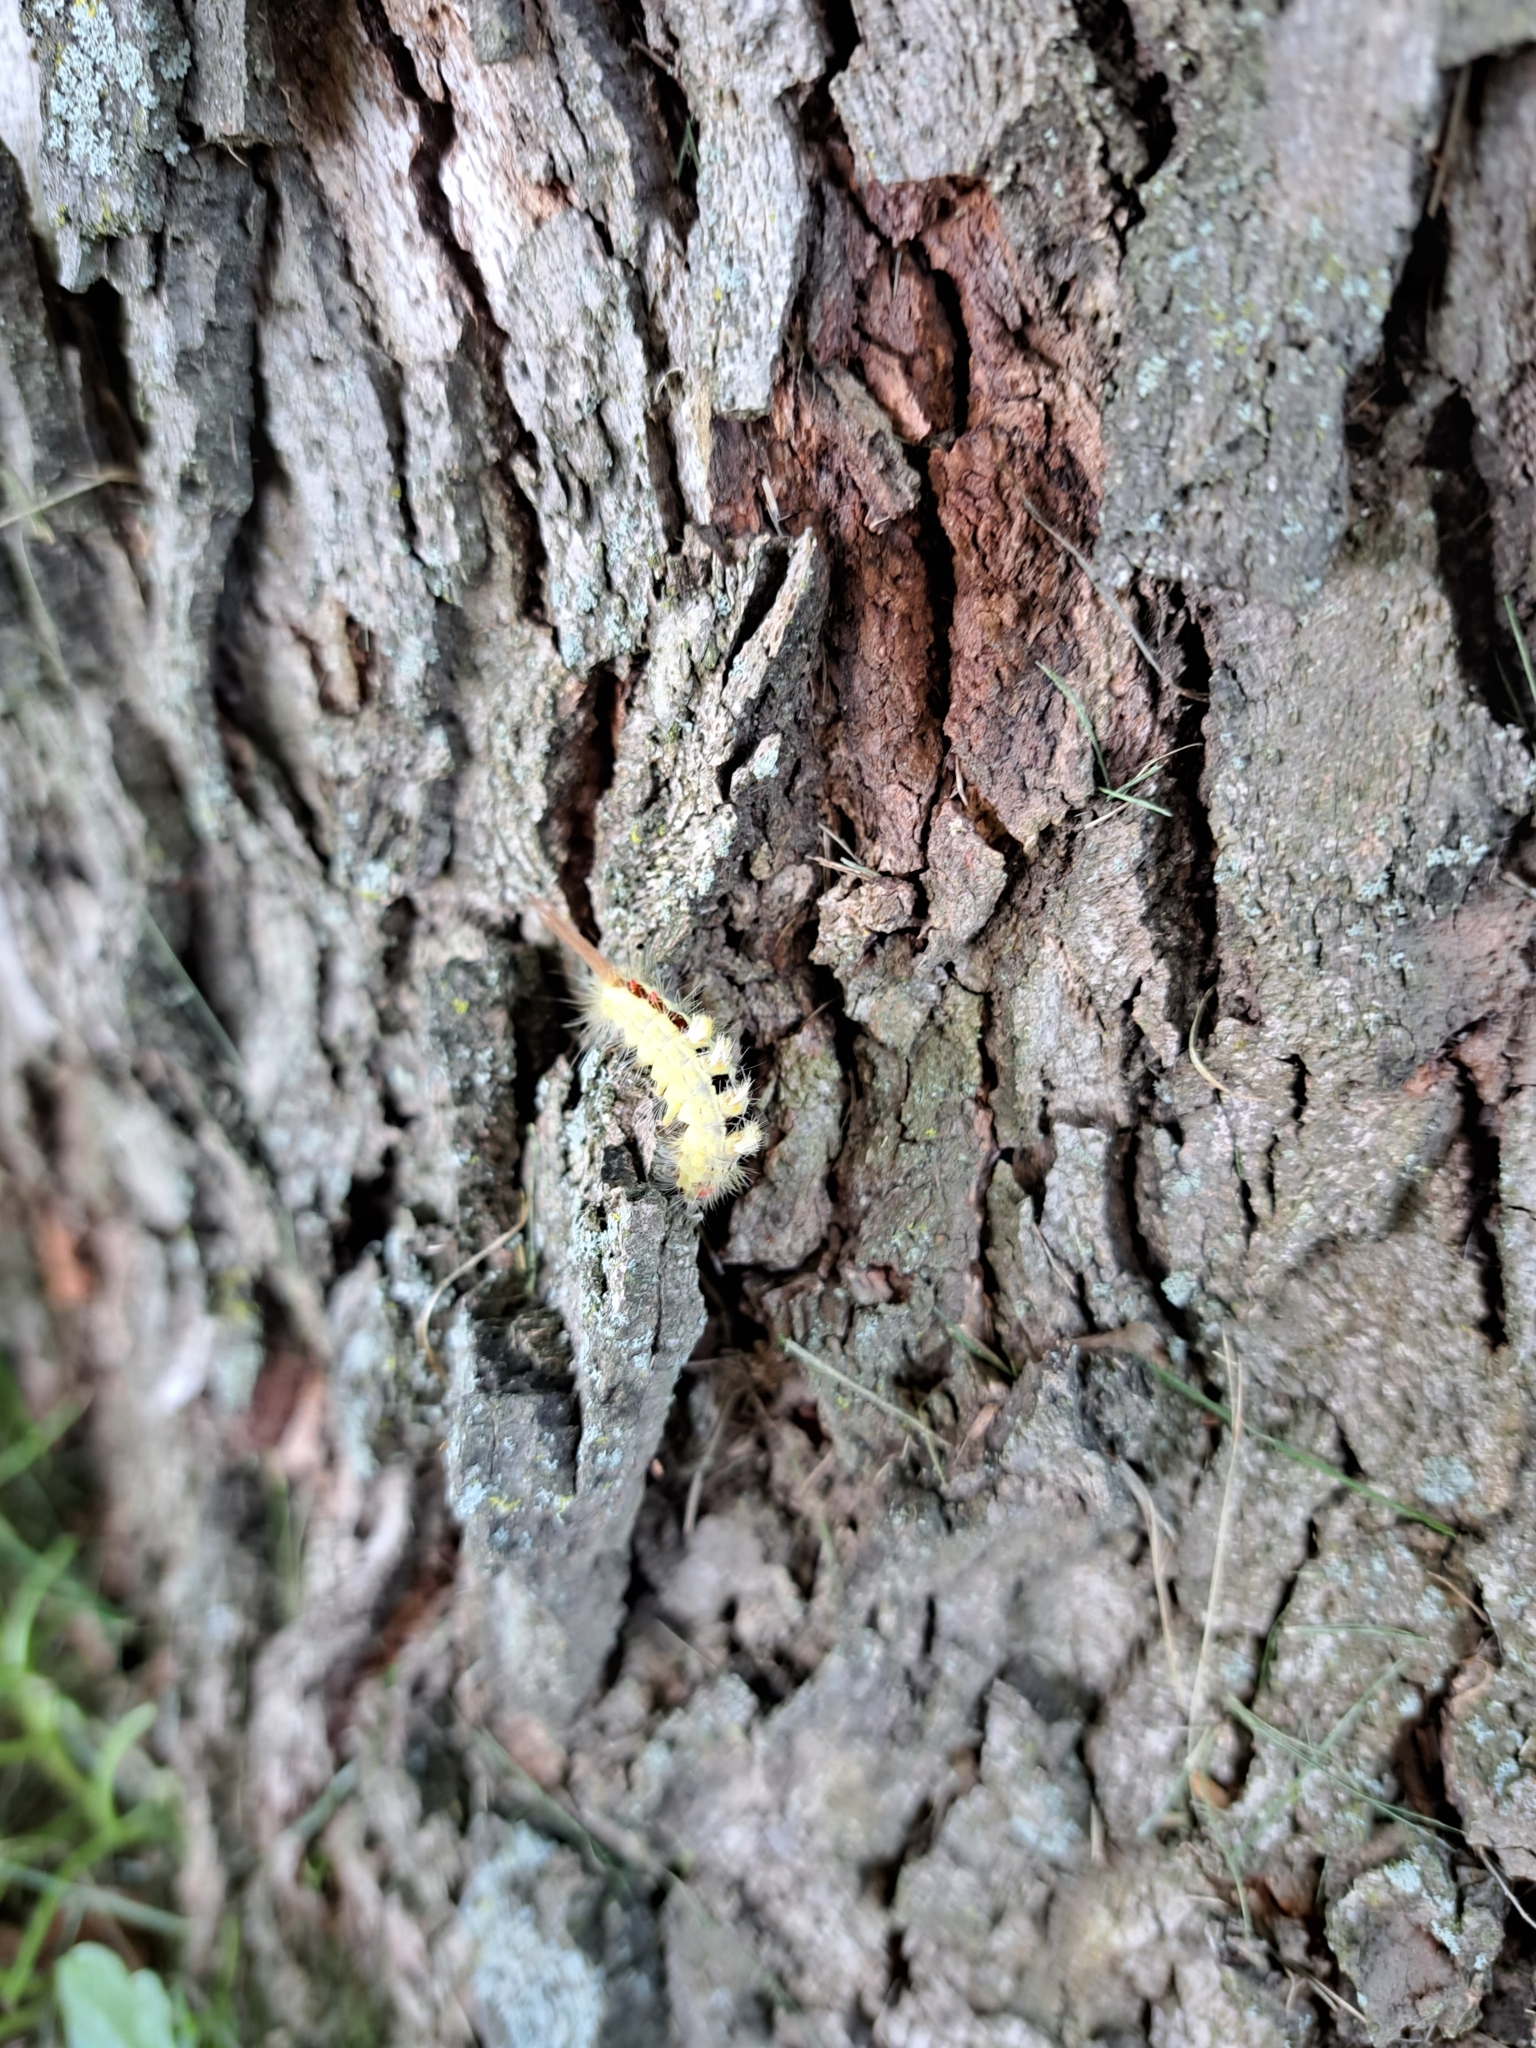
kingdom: Animalia
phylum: Arthropoda
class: Insecta
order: Lepidoptera
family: Erebidae
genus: Orgyia
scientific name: Orgyia leucostigma
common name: White-marked tussock moth
